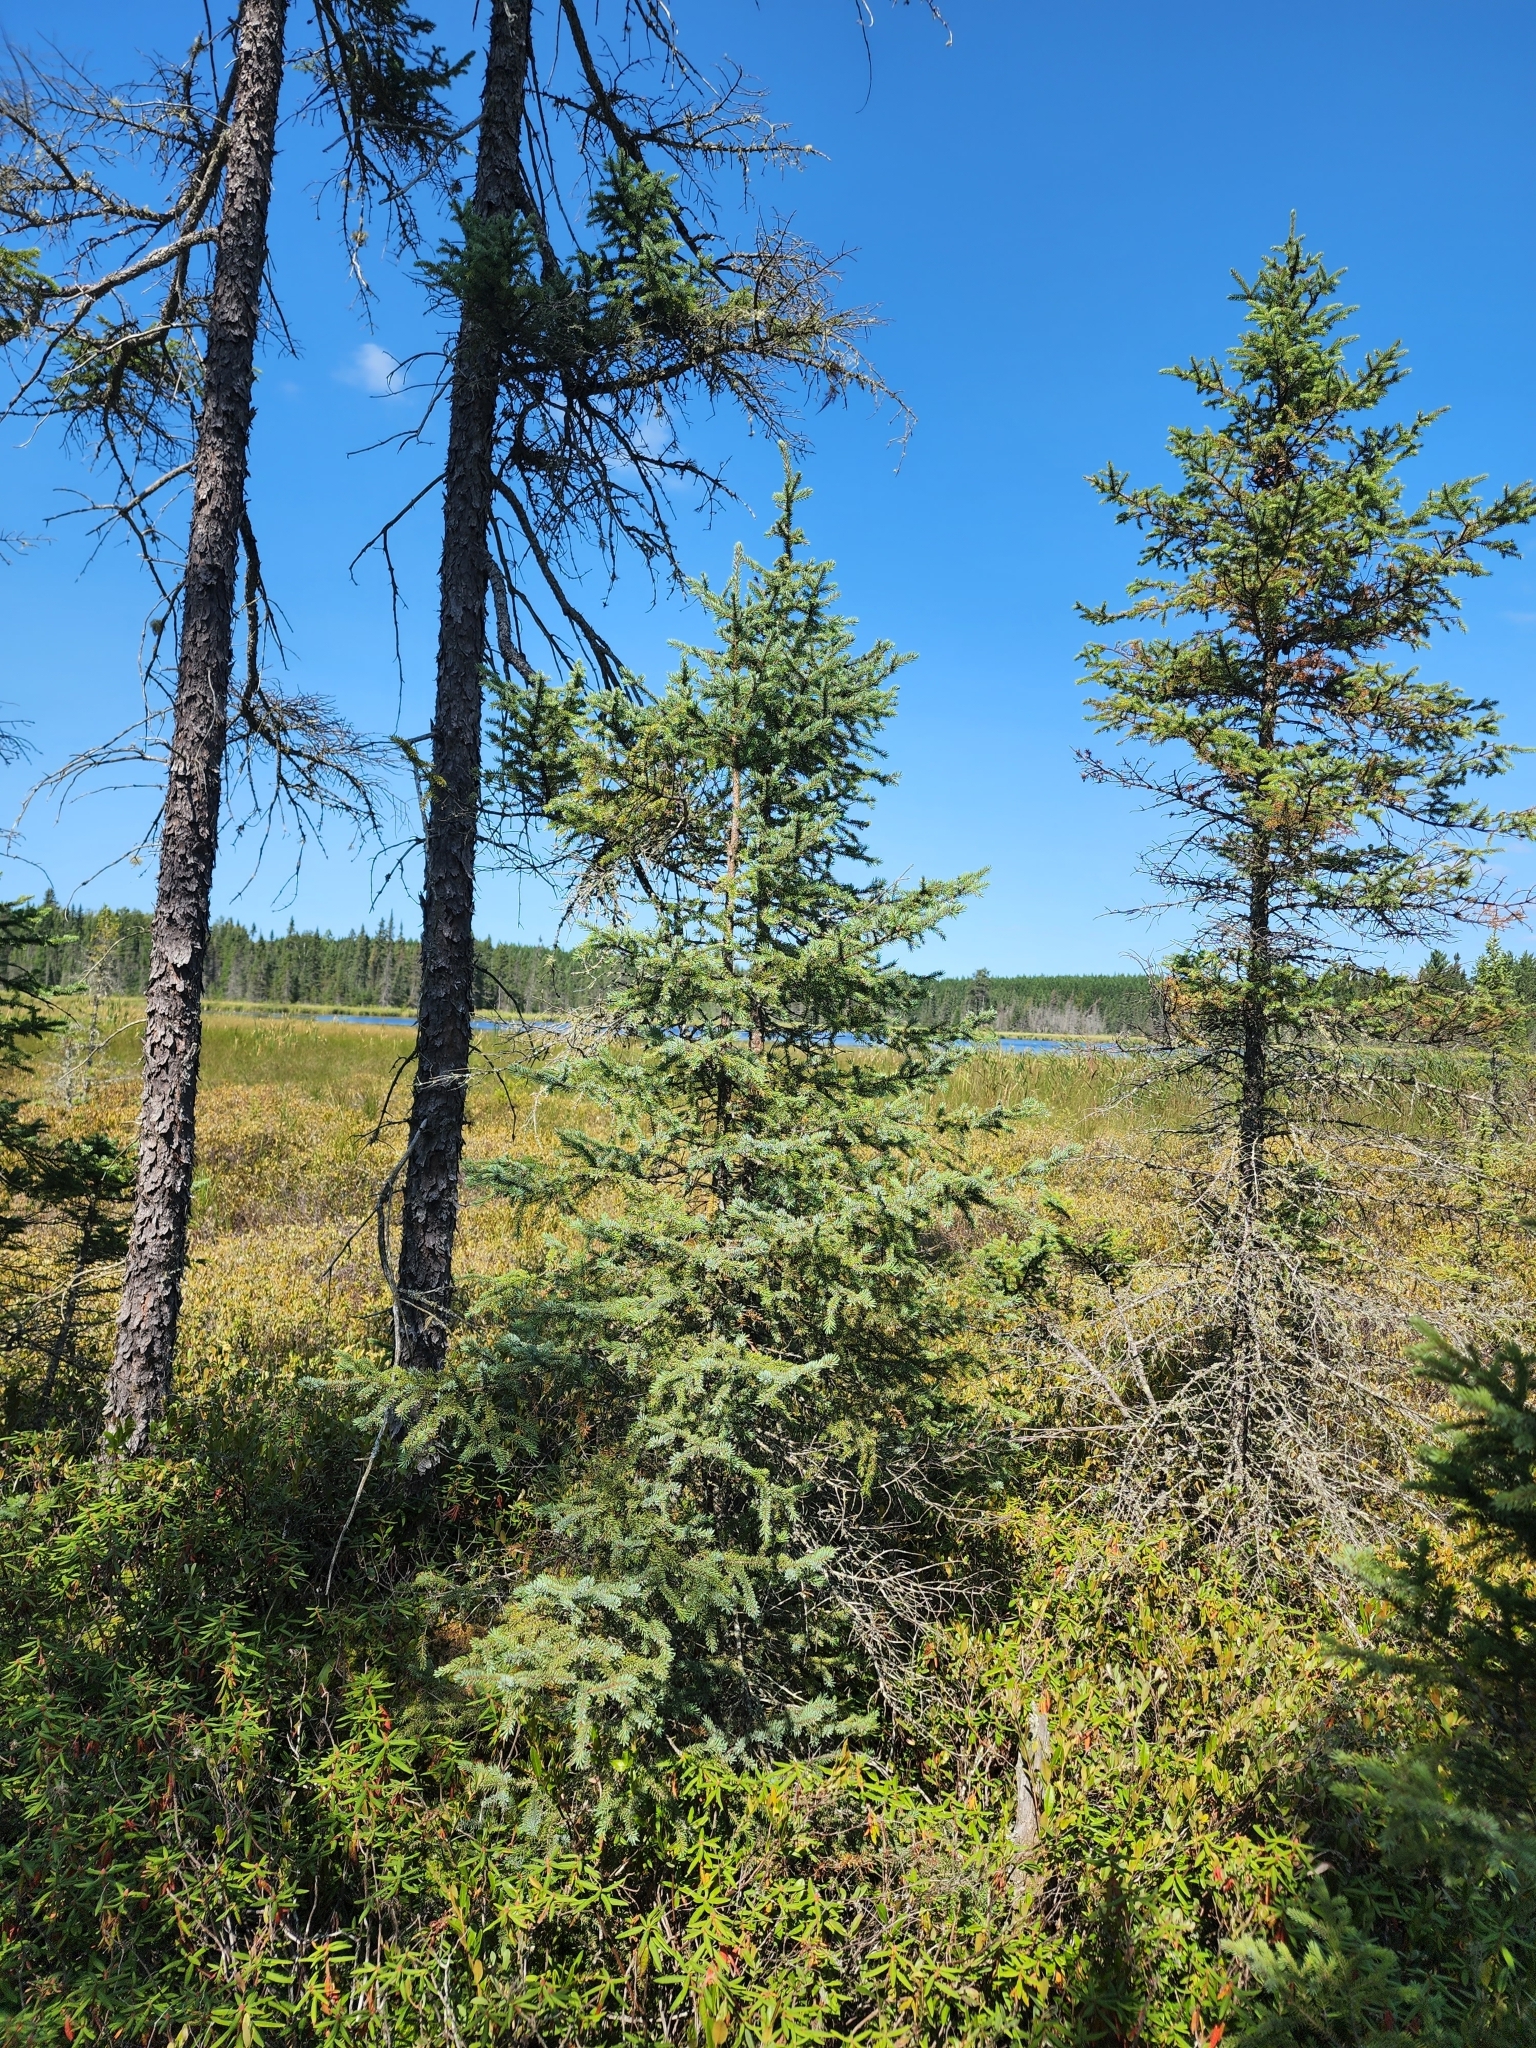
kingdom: Plantae
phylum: Tracheophyta
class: Pinopsida
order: Pinales
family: Pinaceae
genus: Picea
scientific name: Picea mariana
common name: Black spruce
